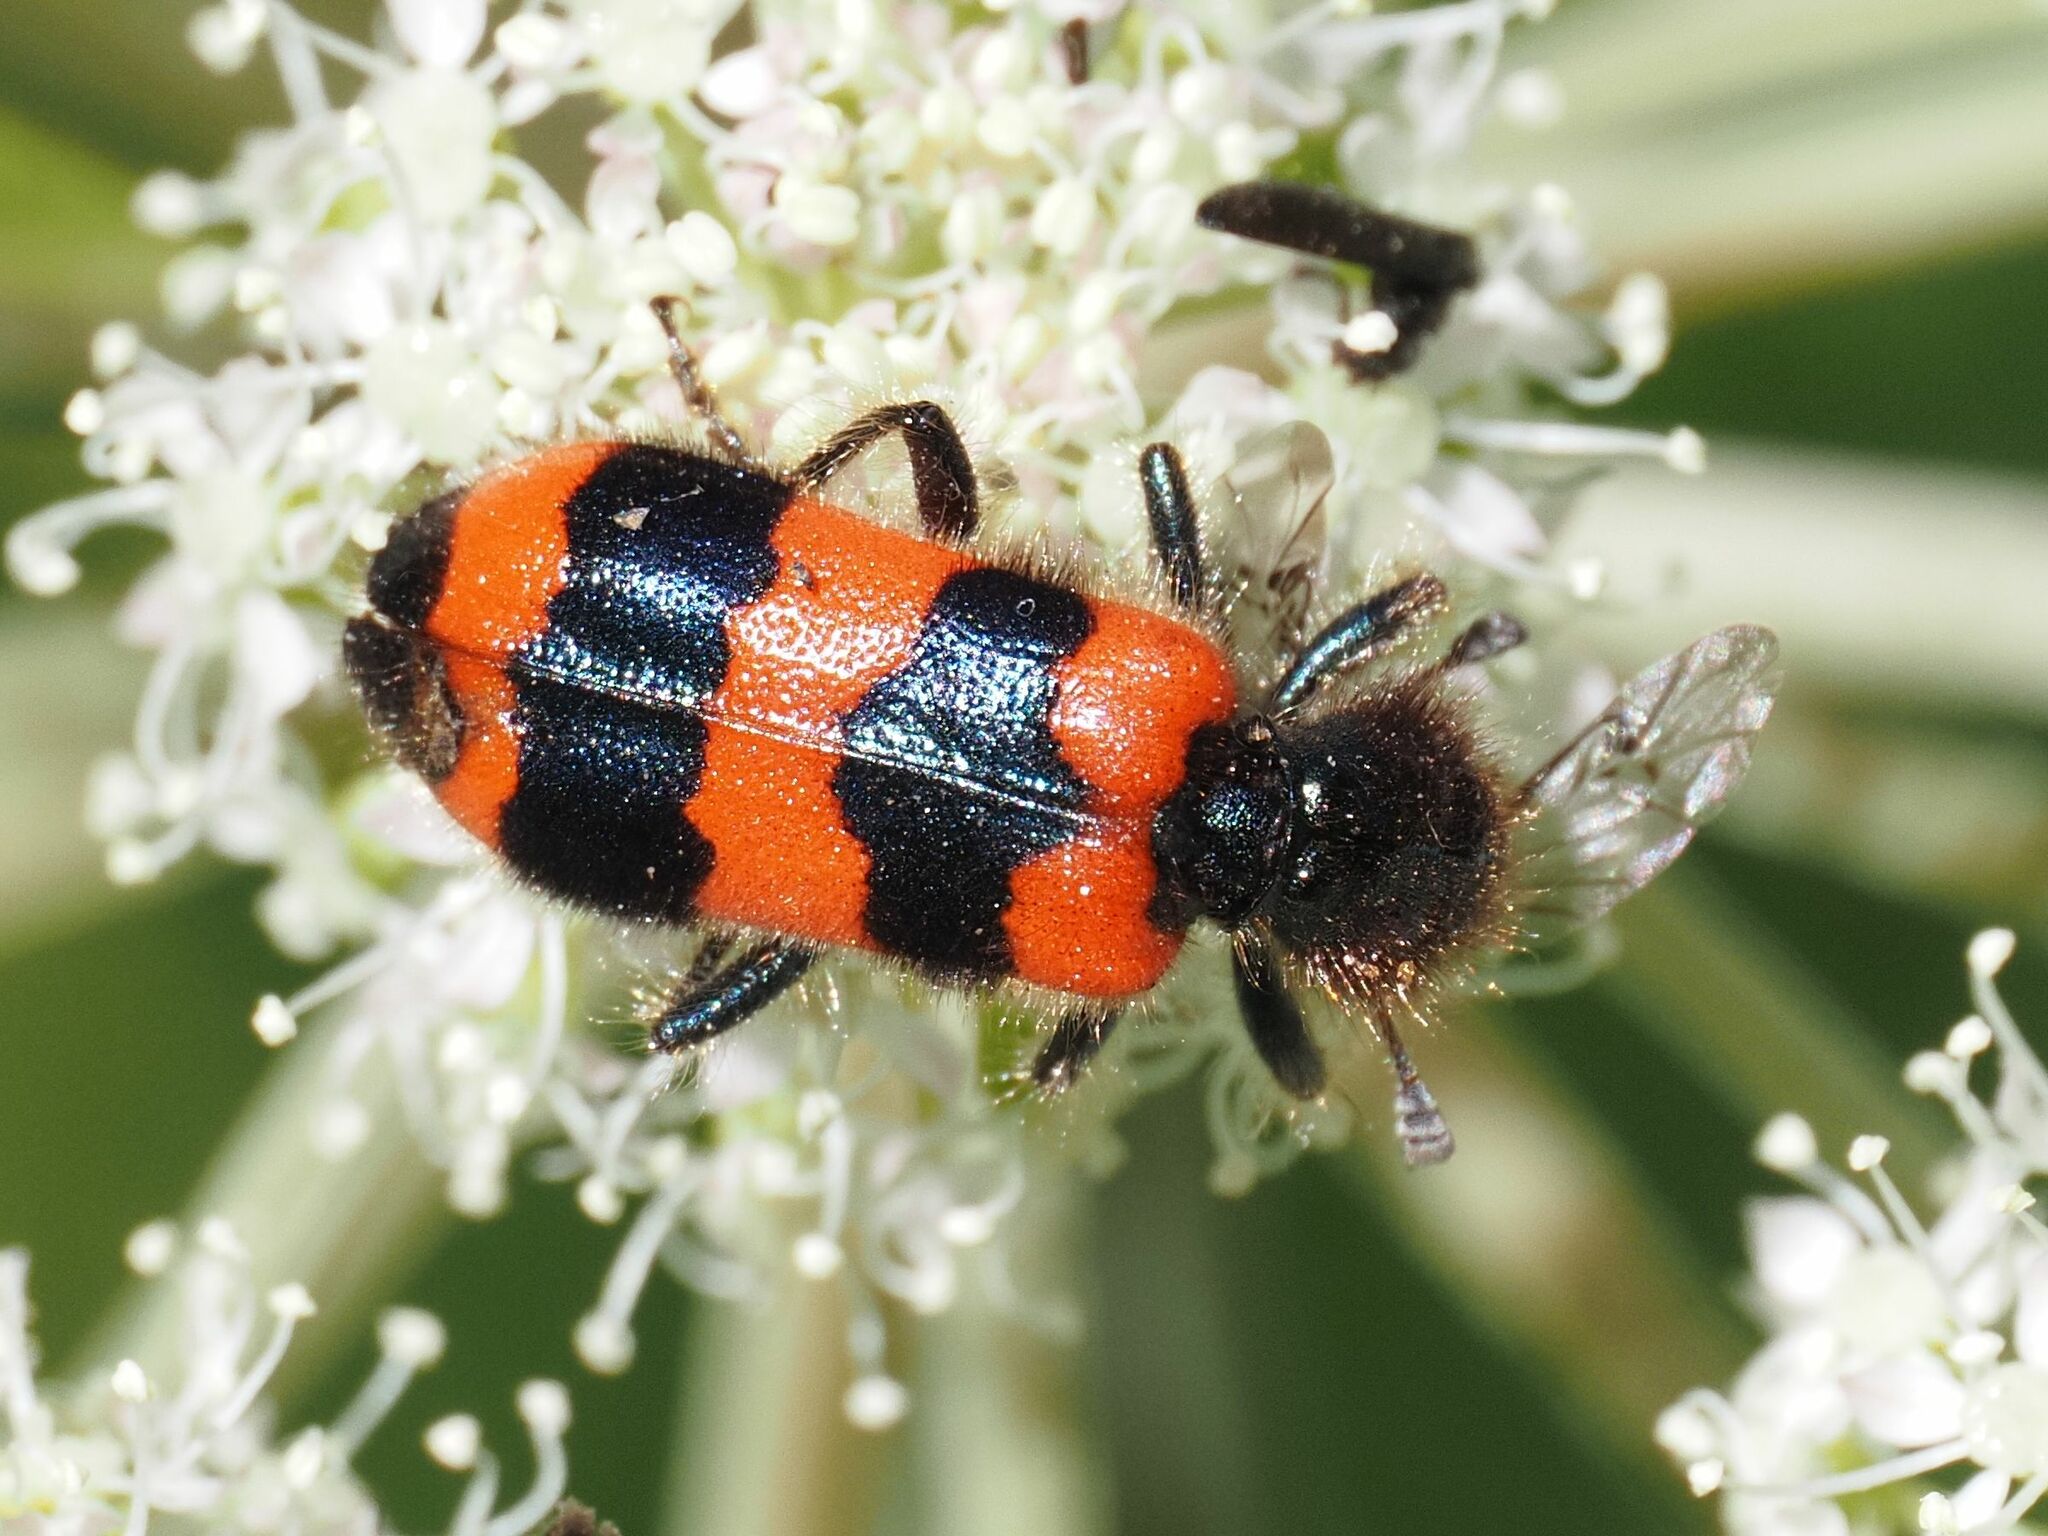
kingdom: Animalia
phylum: Arthropoda
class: Insecta
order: Coleoptera
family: Cleridae
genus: Trichodes
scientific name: Trichodes apiarius
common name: Bee-eating beetle
